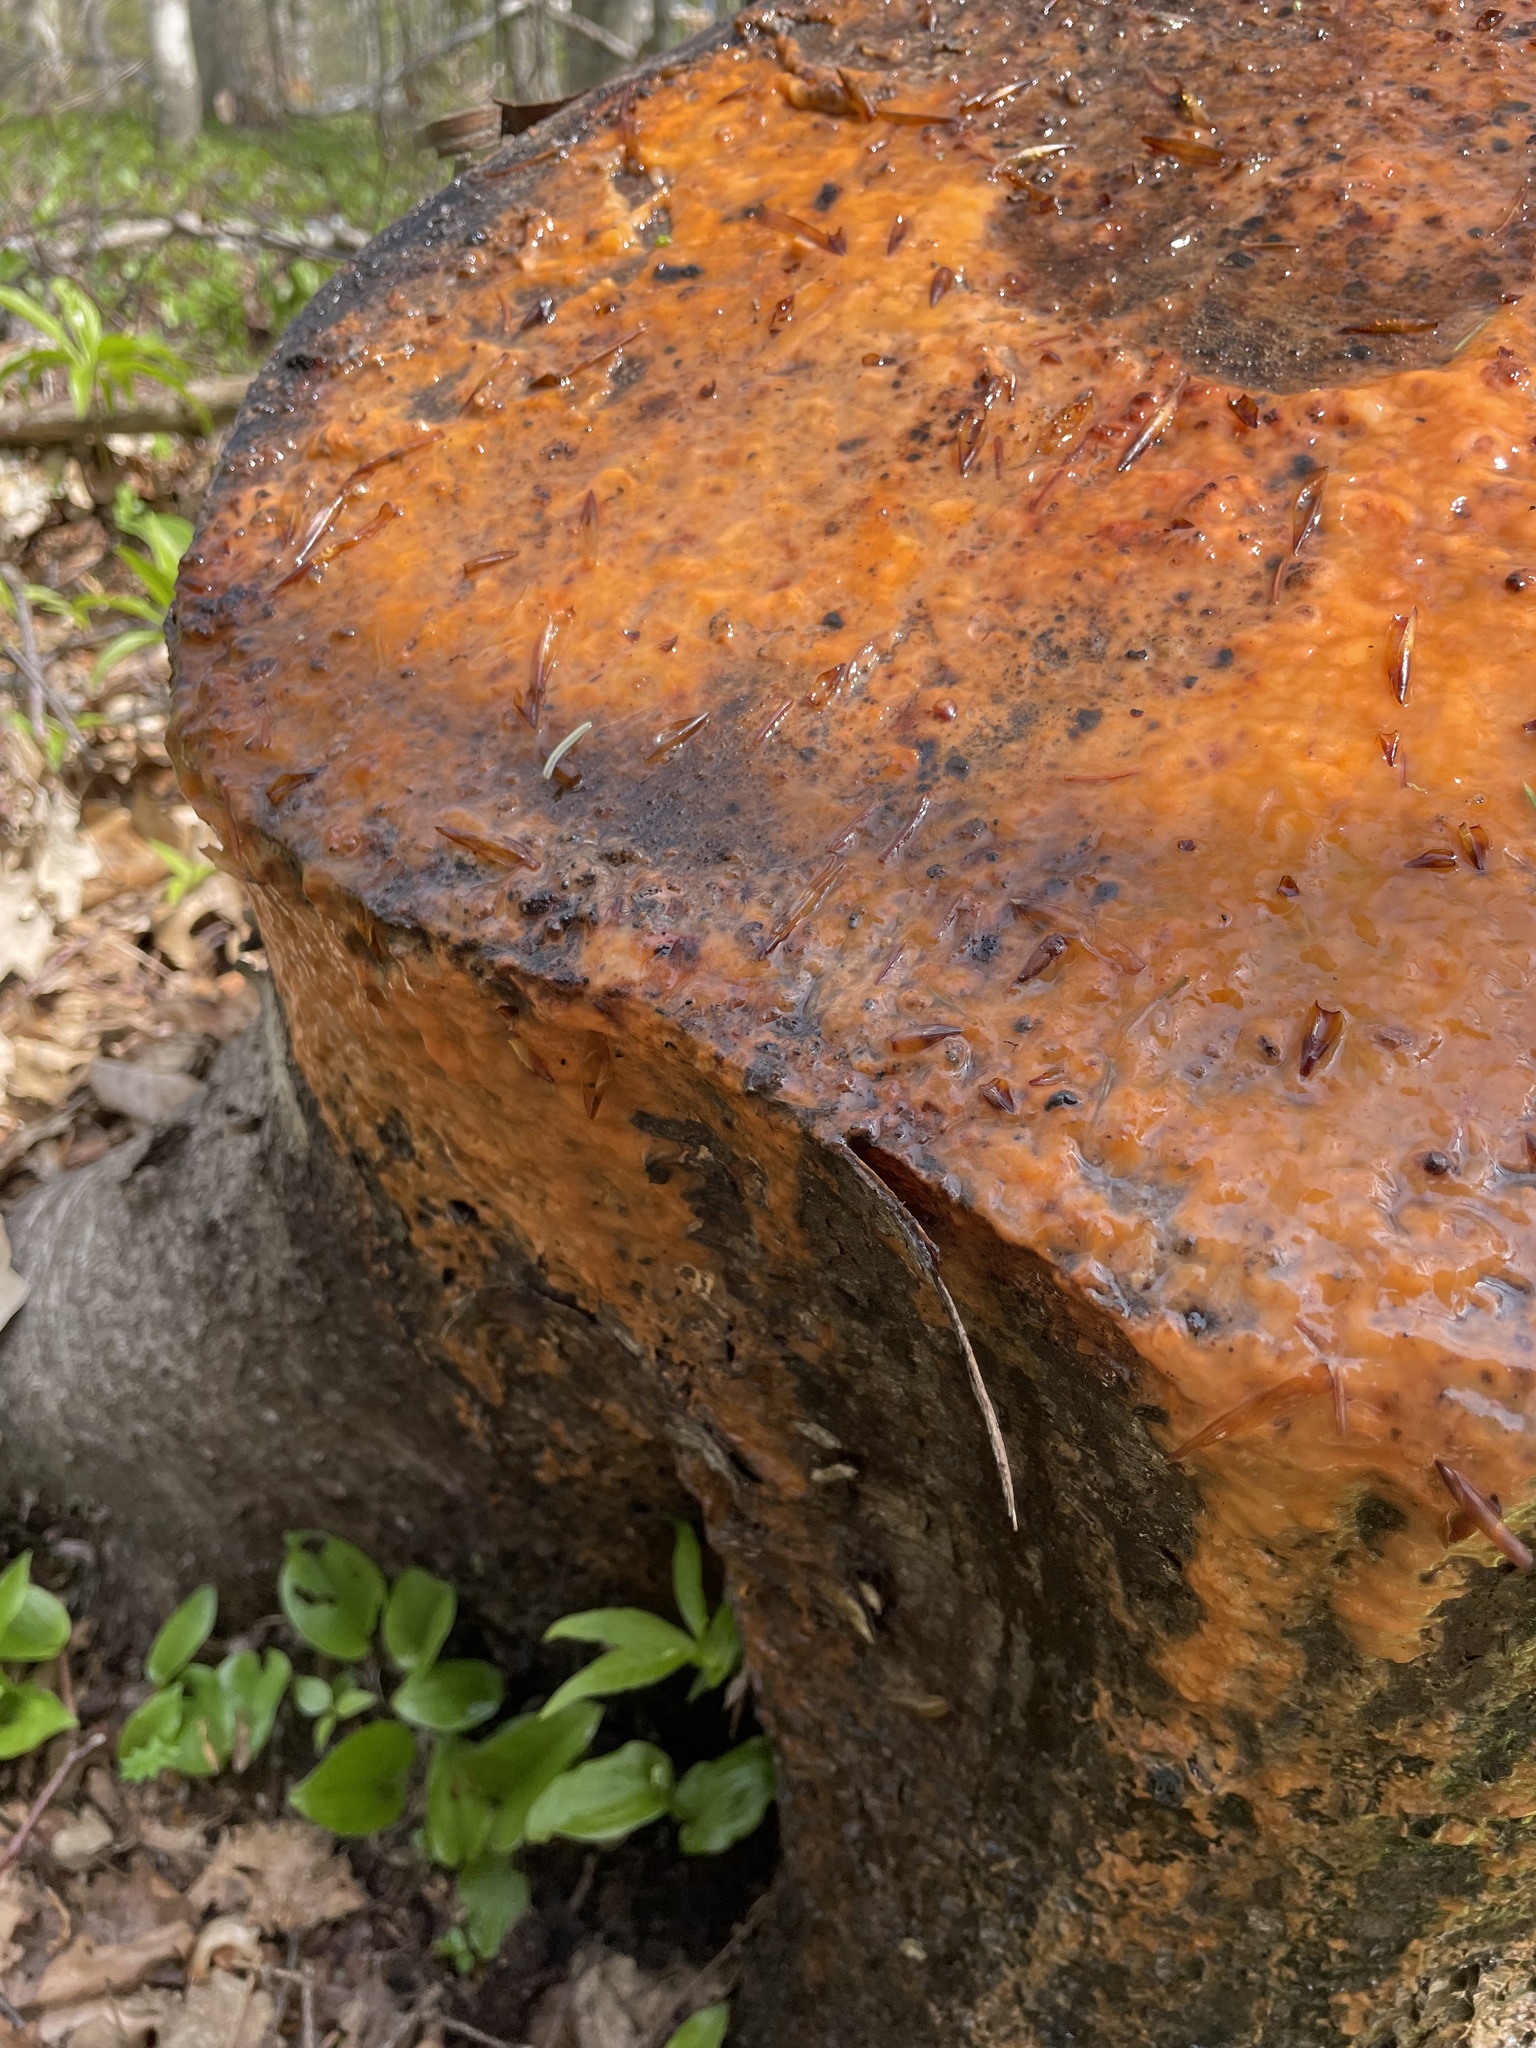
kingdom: Fungi
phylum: Ascomycota
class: Sordariomycetes
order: Hypocreales
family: Nectriaceae
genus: Fusicolla
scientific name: Fusicolla merismoides
